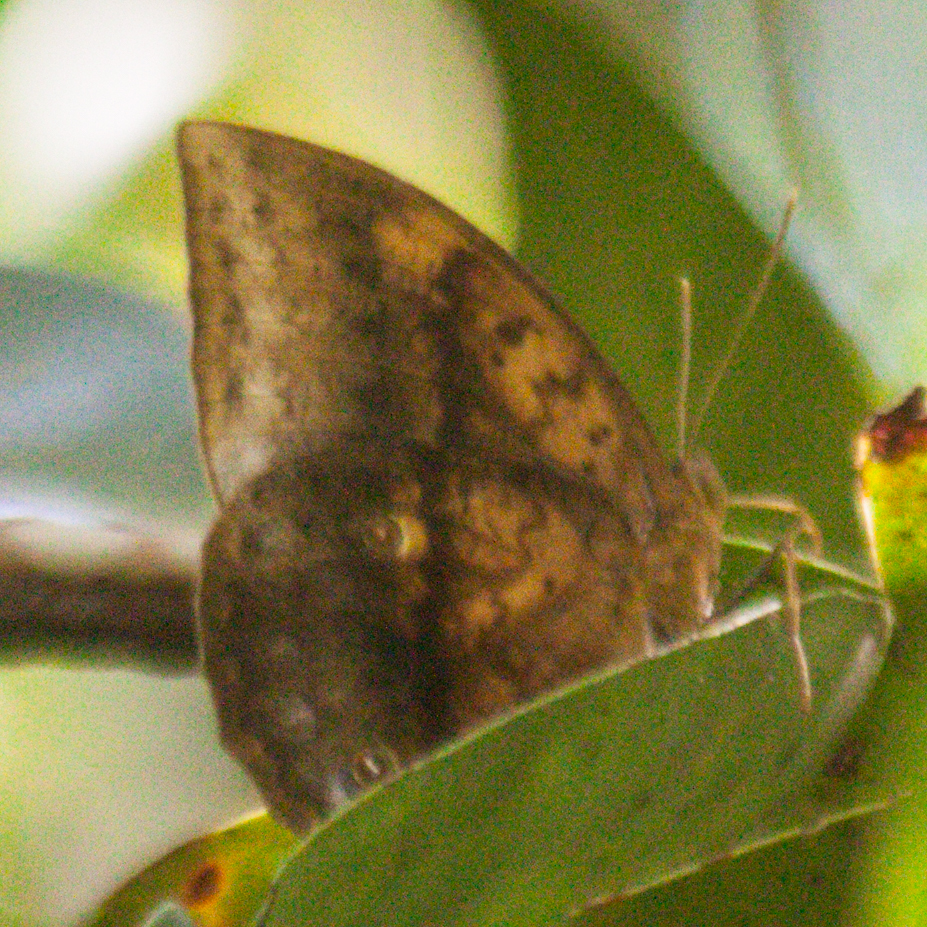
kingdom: Animalia
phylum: Arthropoda
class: Insecta
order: Lepidoptera
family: Nymphalidae
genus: Discophora
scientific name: Discophora timora
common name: Great duffer
